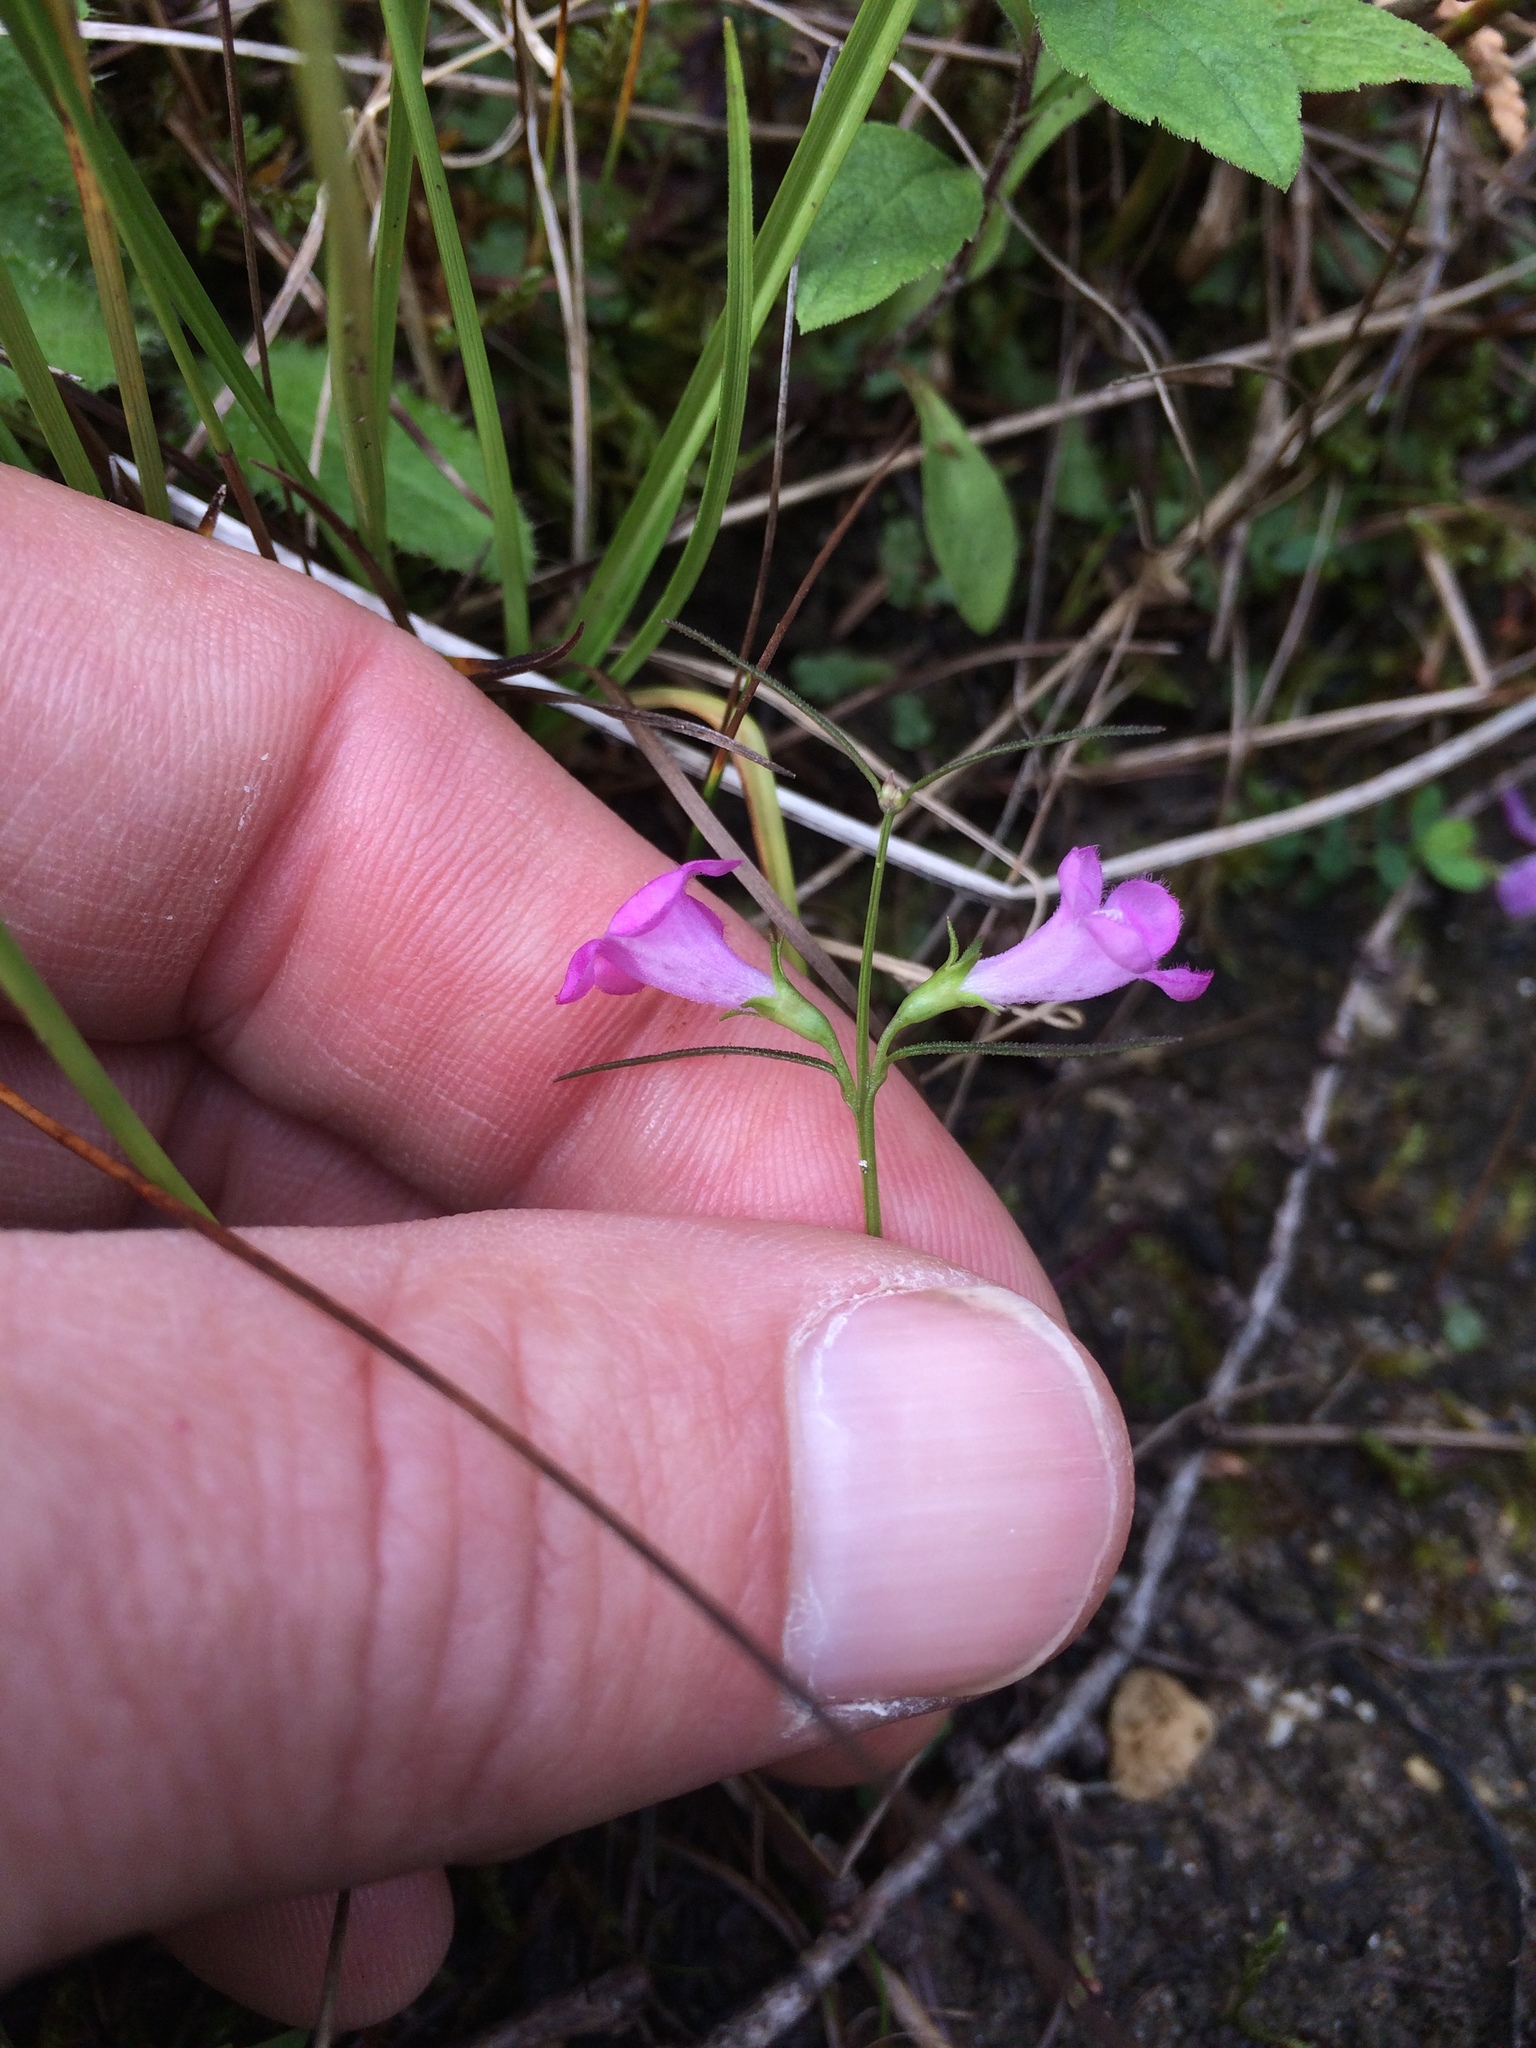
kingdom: Plantae
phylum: Tracheophyta
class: Magnoliopsida
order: Lamiales
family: Orobanchaceae
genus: Agalinis
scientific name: Agalinis purpurea
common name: Purple false foxglove
